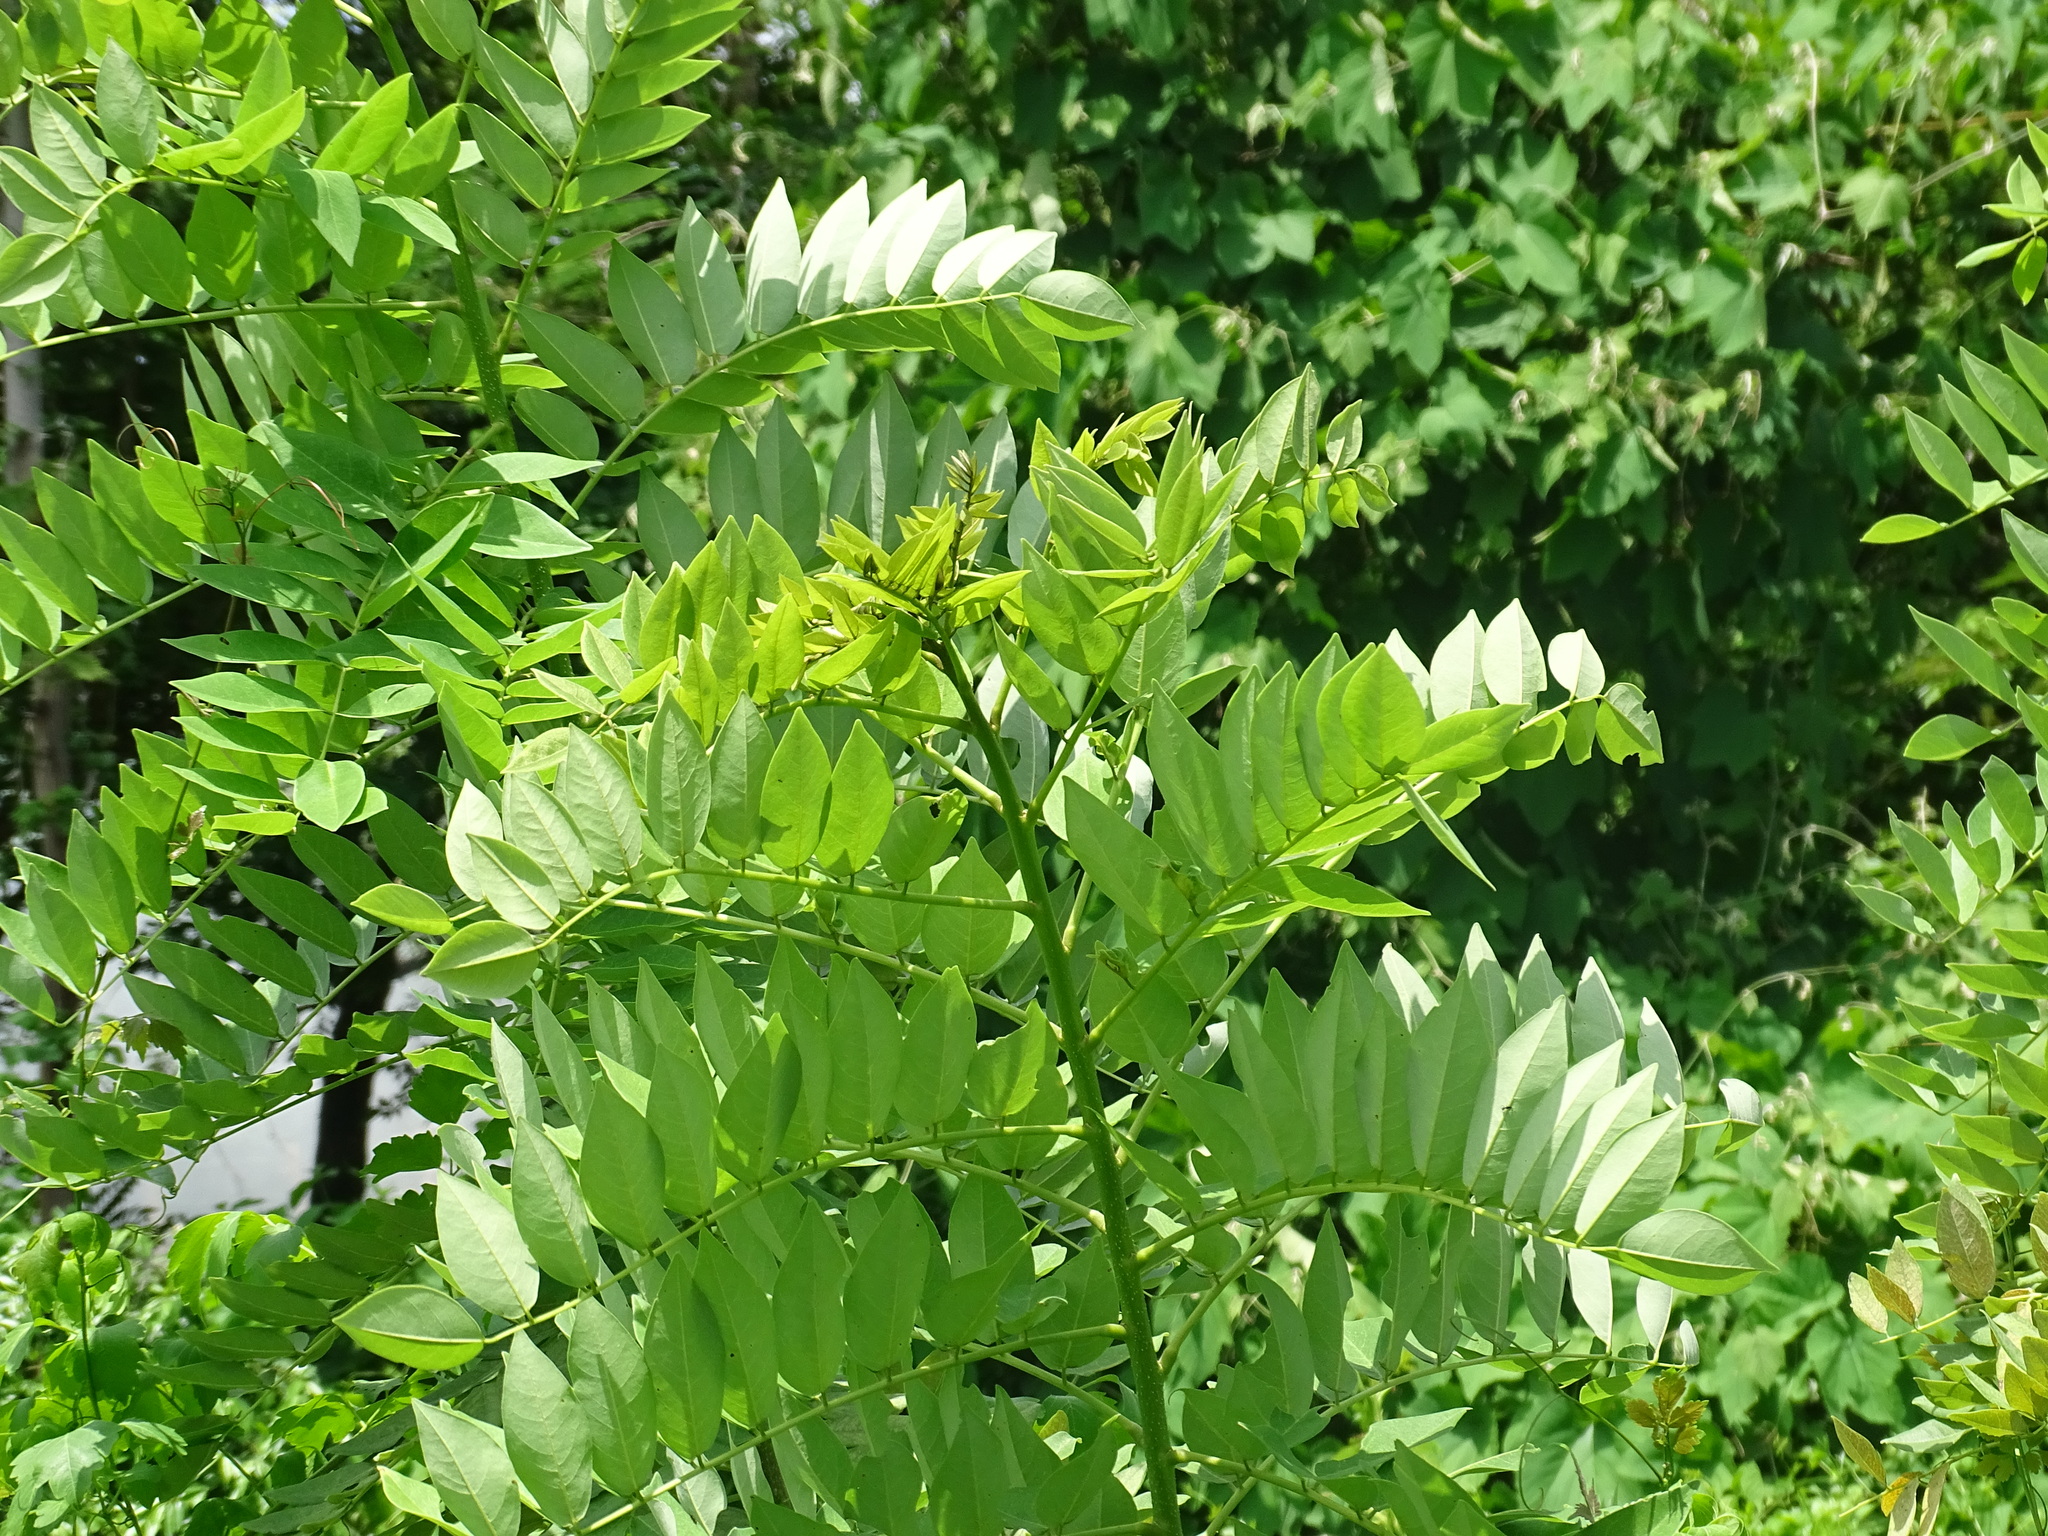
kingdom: Plantae
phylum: Tracheophyta
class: Magnoliopsida
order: Fabales
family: Fabaceae
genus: Gliricidia
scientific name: Gliricidia sepium
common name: Quickstick
